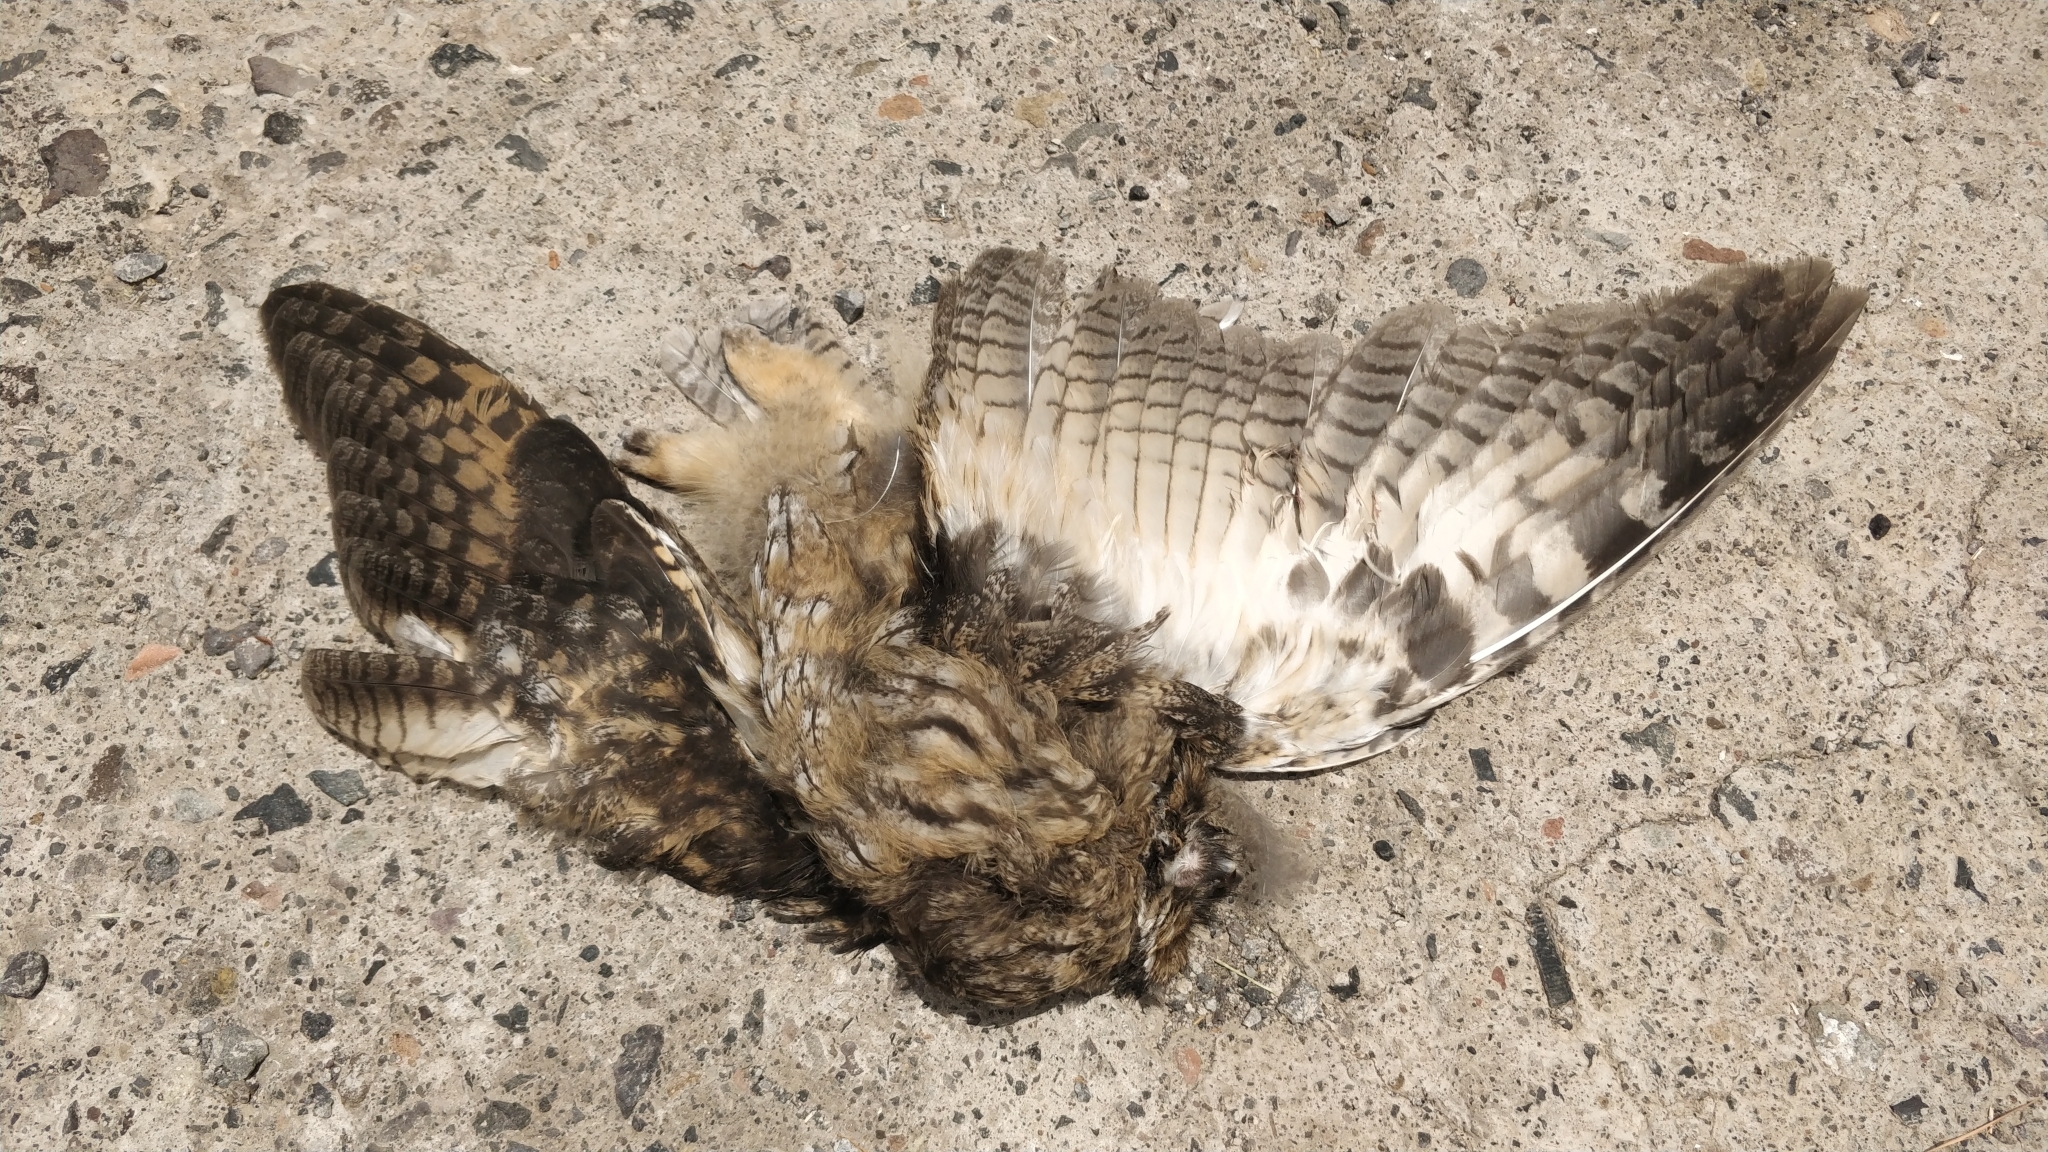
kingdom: Animalia
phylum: Chordata
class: Aves
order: Strigiformes
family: Strigidae
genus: Asio
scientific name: Asio otus
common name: Long-eared owl
